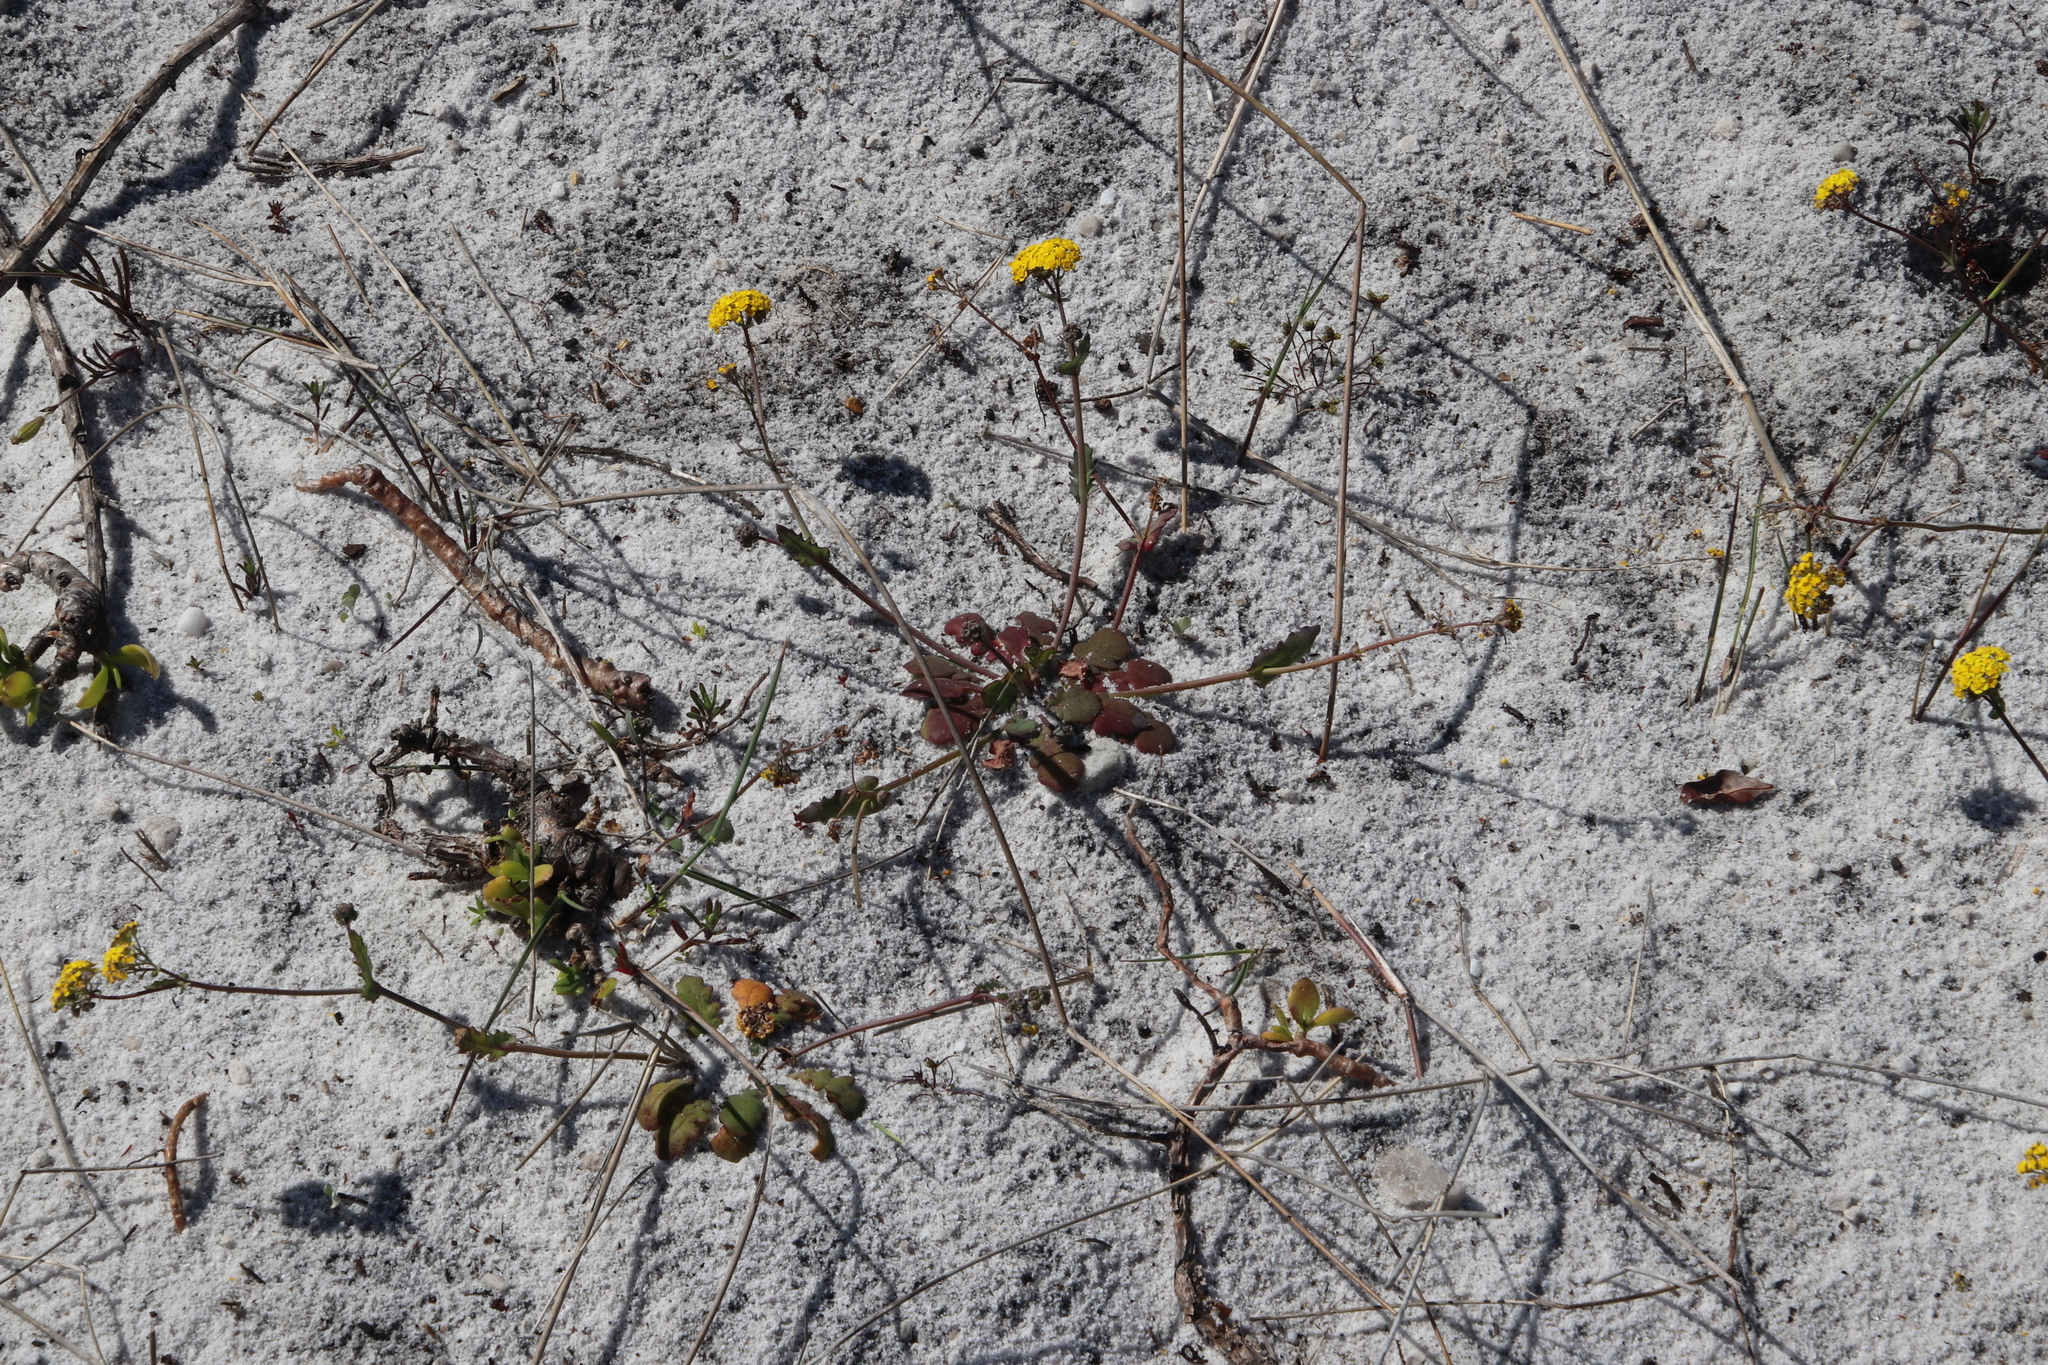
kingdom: Plantae
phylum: Tracheophyta
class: Magnoliopsida
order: Asterales
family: Asteraceae
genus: Gymnodiscus
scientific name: Gymnodiscus capillaris
